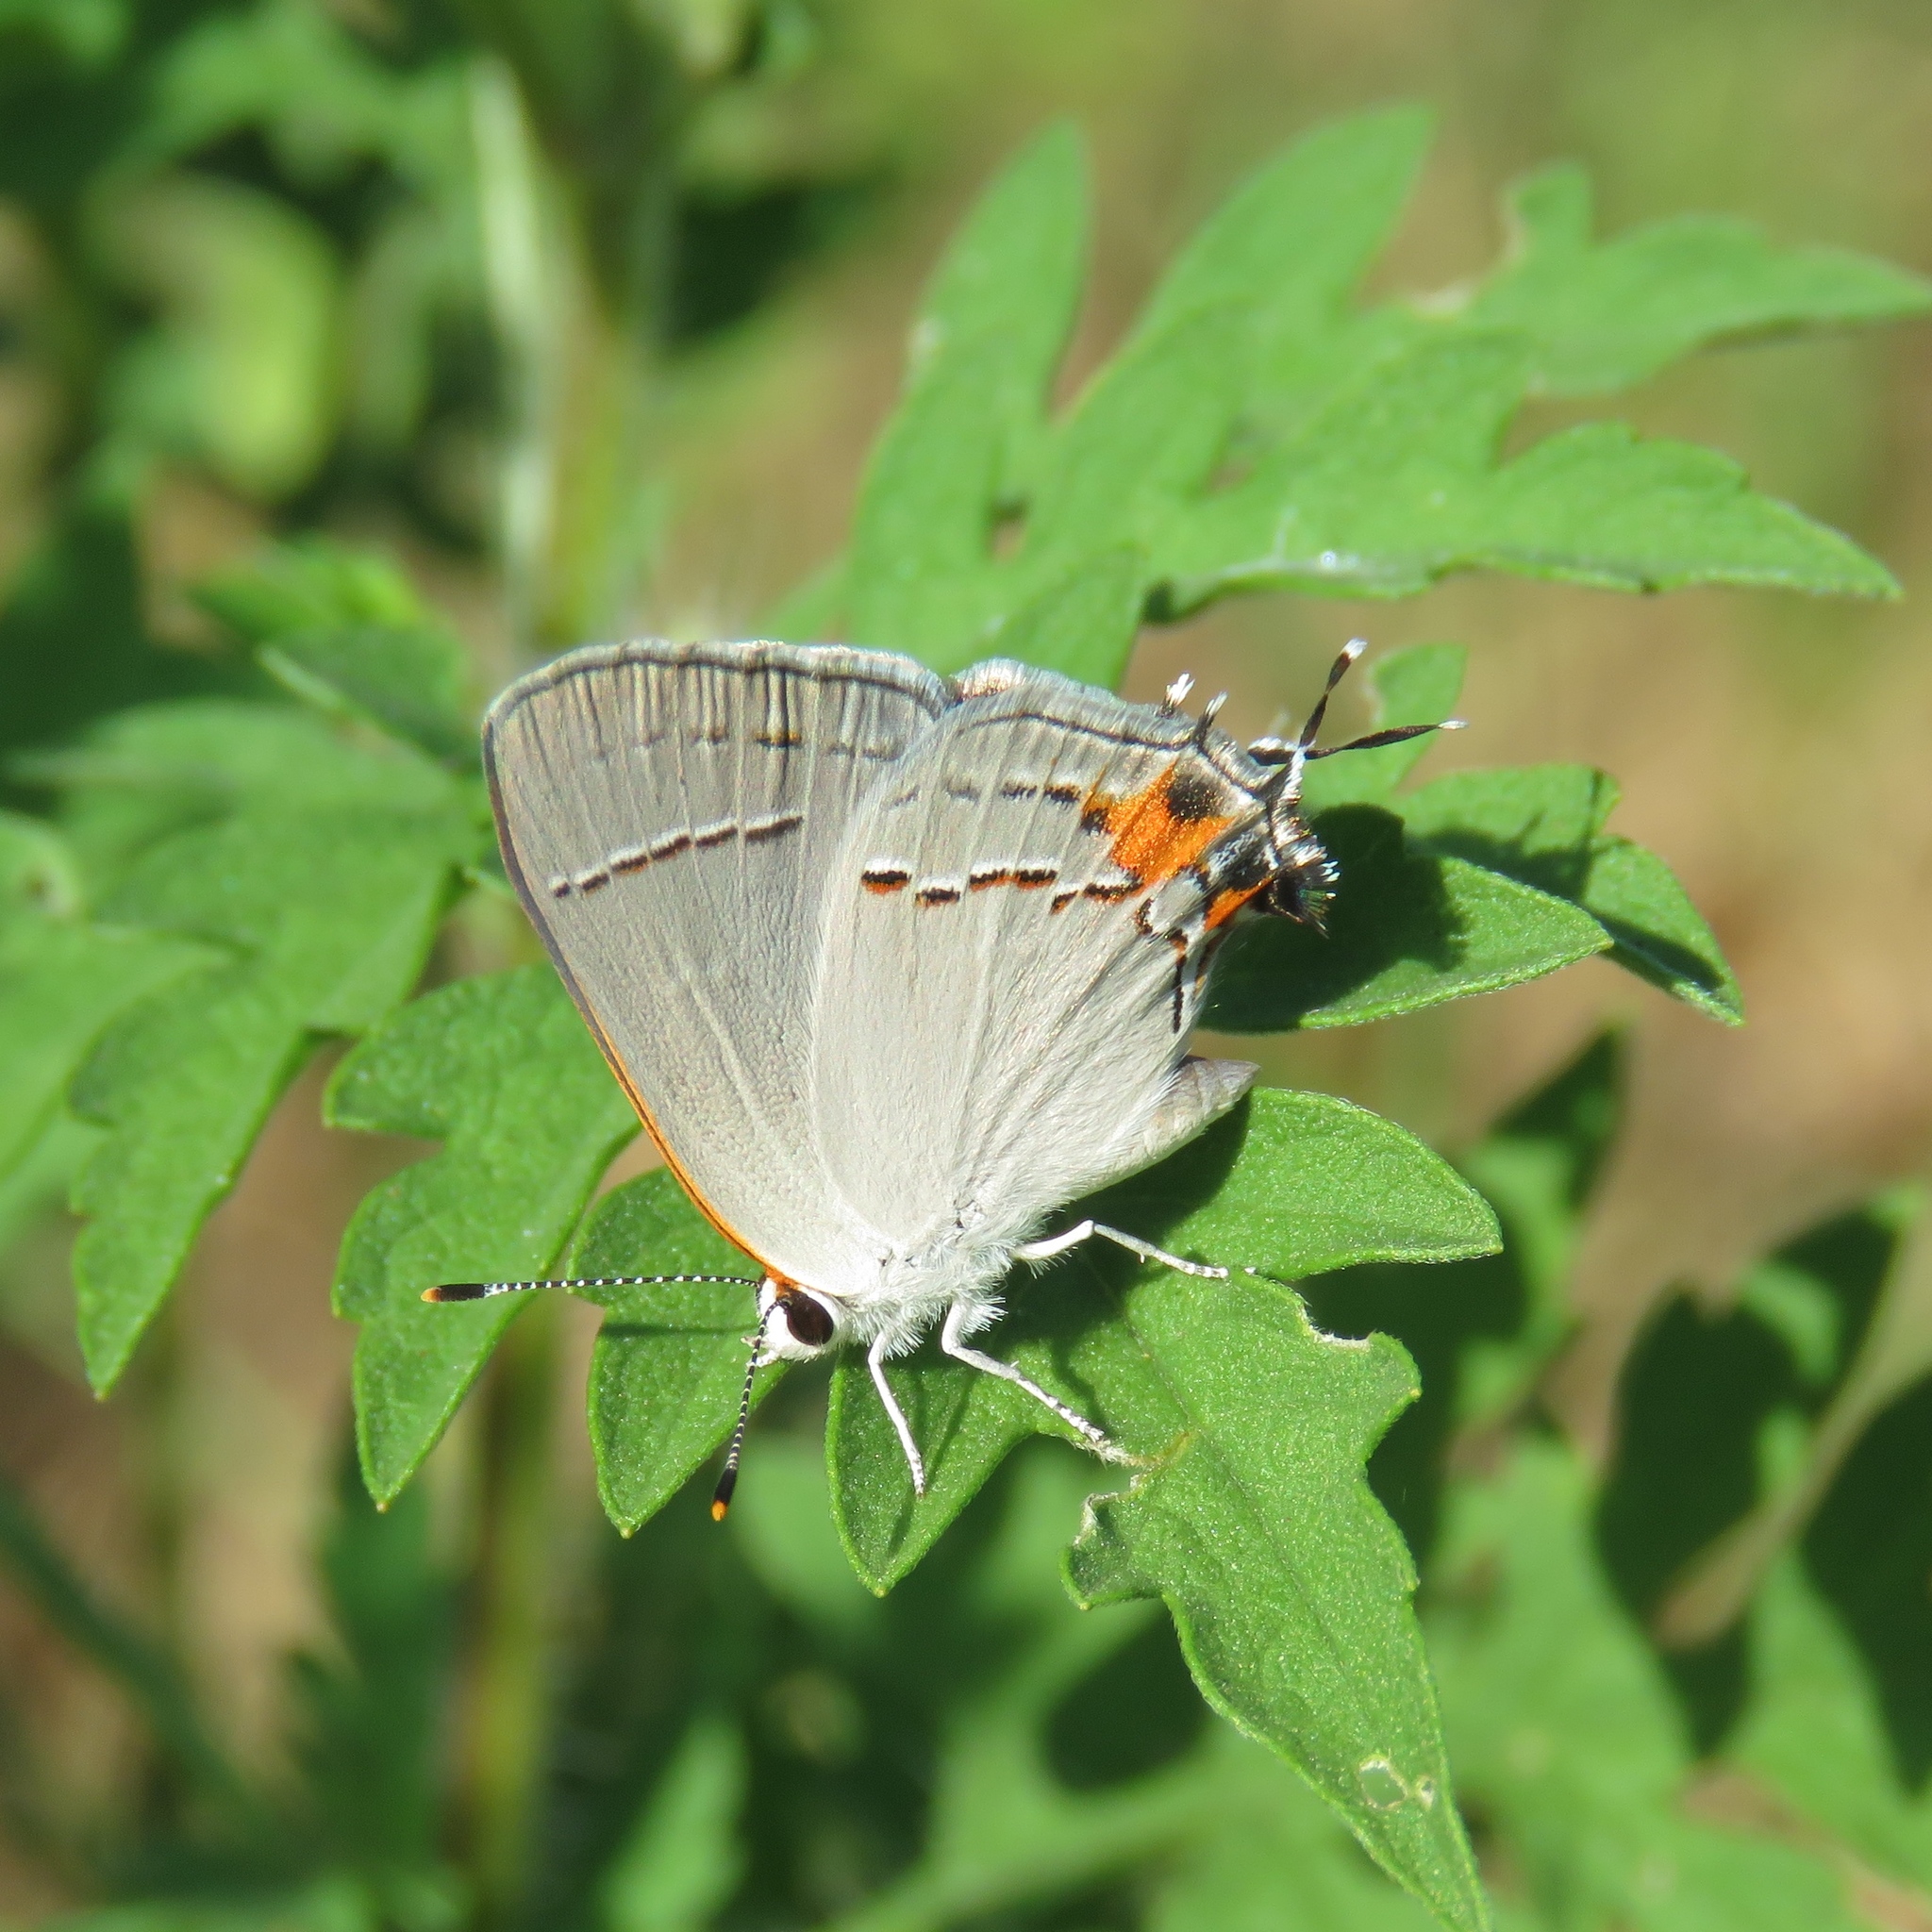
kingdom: Animalia
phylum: Arthropoda
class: Insecta
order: Lepidoptera
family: Lycaenidae
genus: Strymon
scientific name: Strymon melinus
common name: Gray hairstreak
